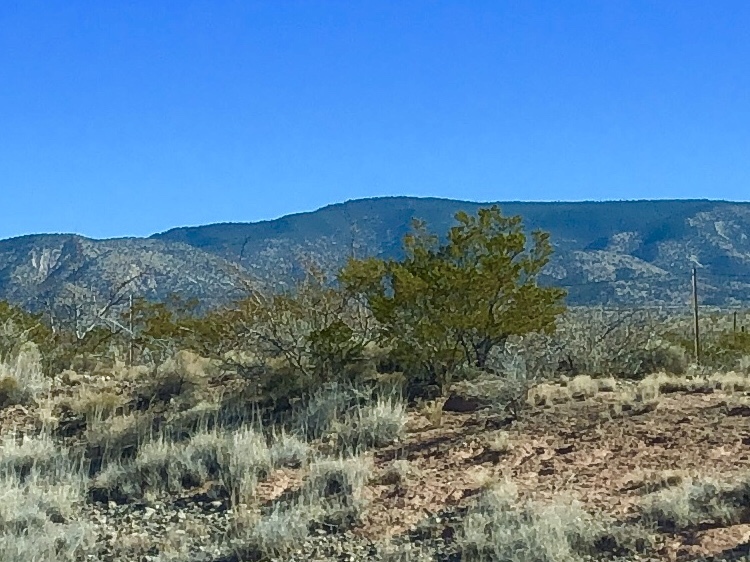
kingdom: Plantae
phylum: Tracheophyta
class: Magnoliopsida
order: Zygophyllales
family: Zygophyllaceae
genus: Larrea
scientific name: Larrea tridentata
